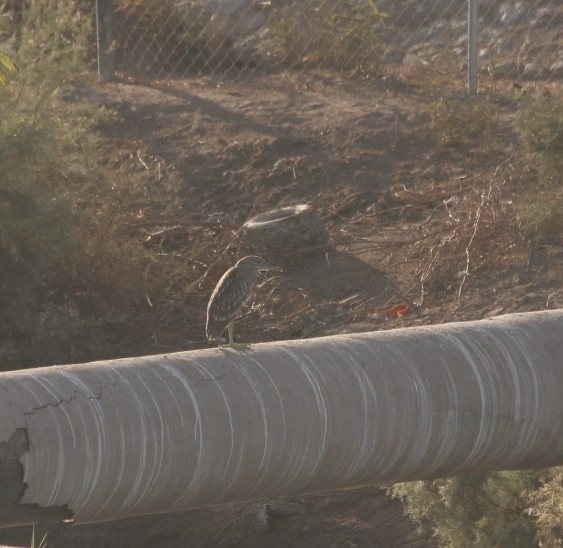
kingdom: Animalia
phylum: Chordata
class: Aves
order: Pelecaniformes
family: Ardeidae
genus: Nycticorax
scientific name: Nycticorax nycticorax
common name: Black-crowned night heron
